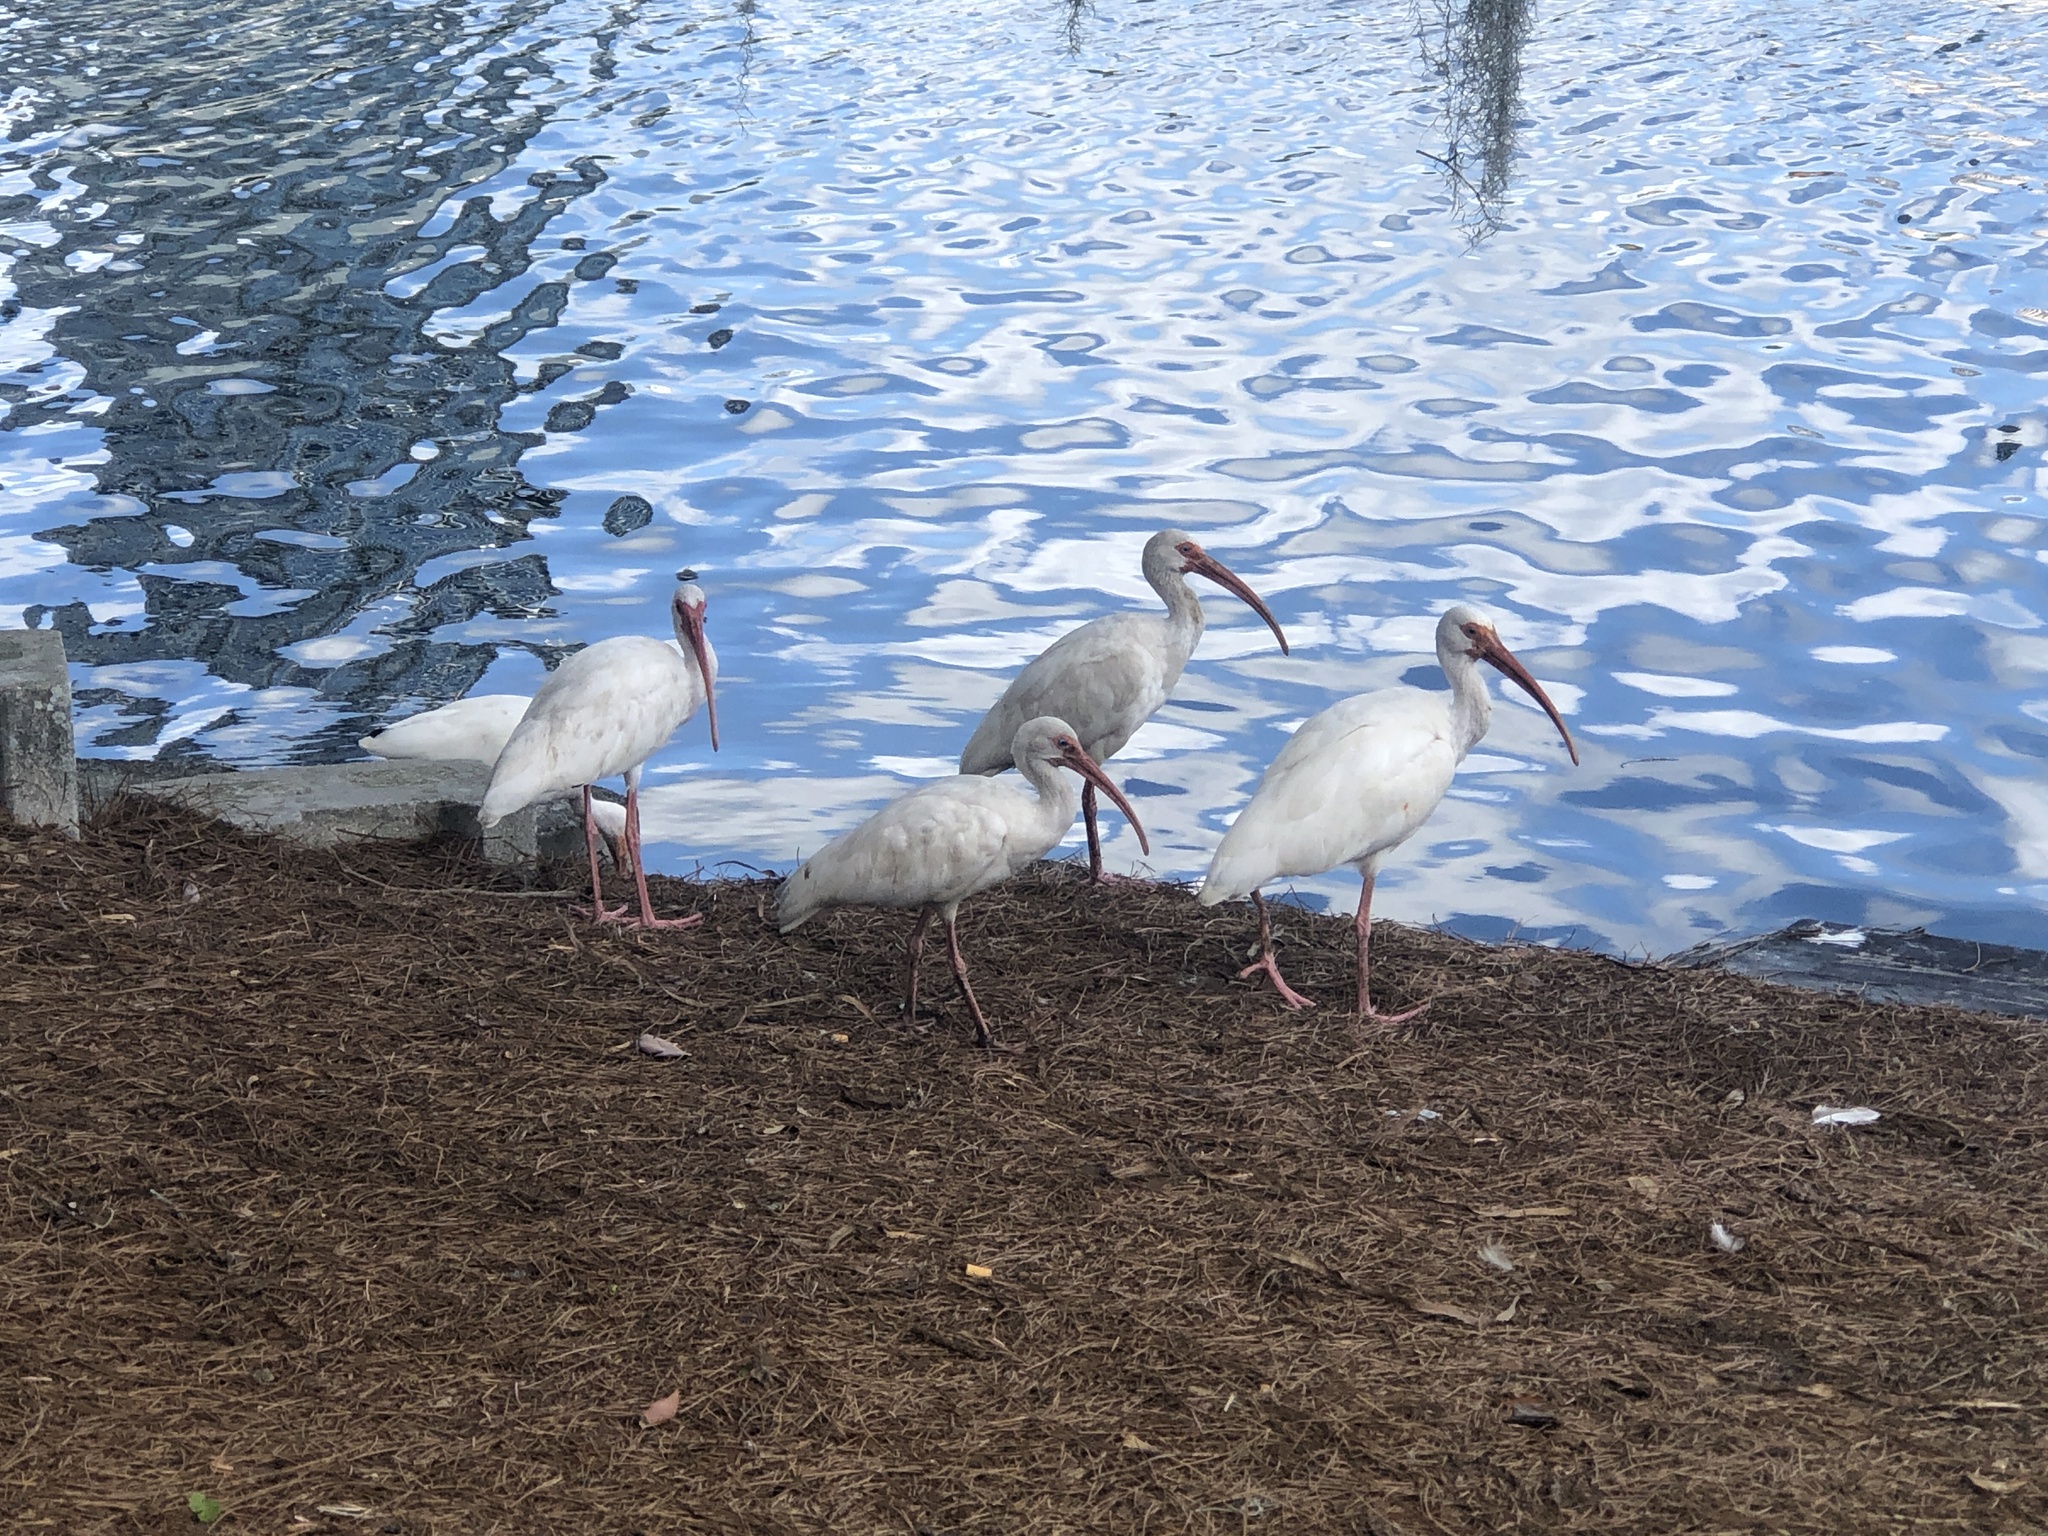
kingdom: Animalia
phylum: Chordata
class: Aves
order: Pelecaniformes
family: Threskiornithidae
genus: Eudocimus
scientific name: Eudocimus albus
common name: White ibis
